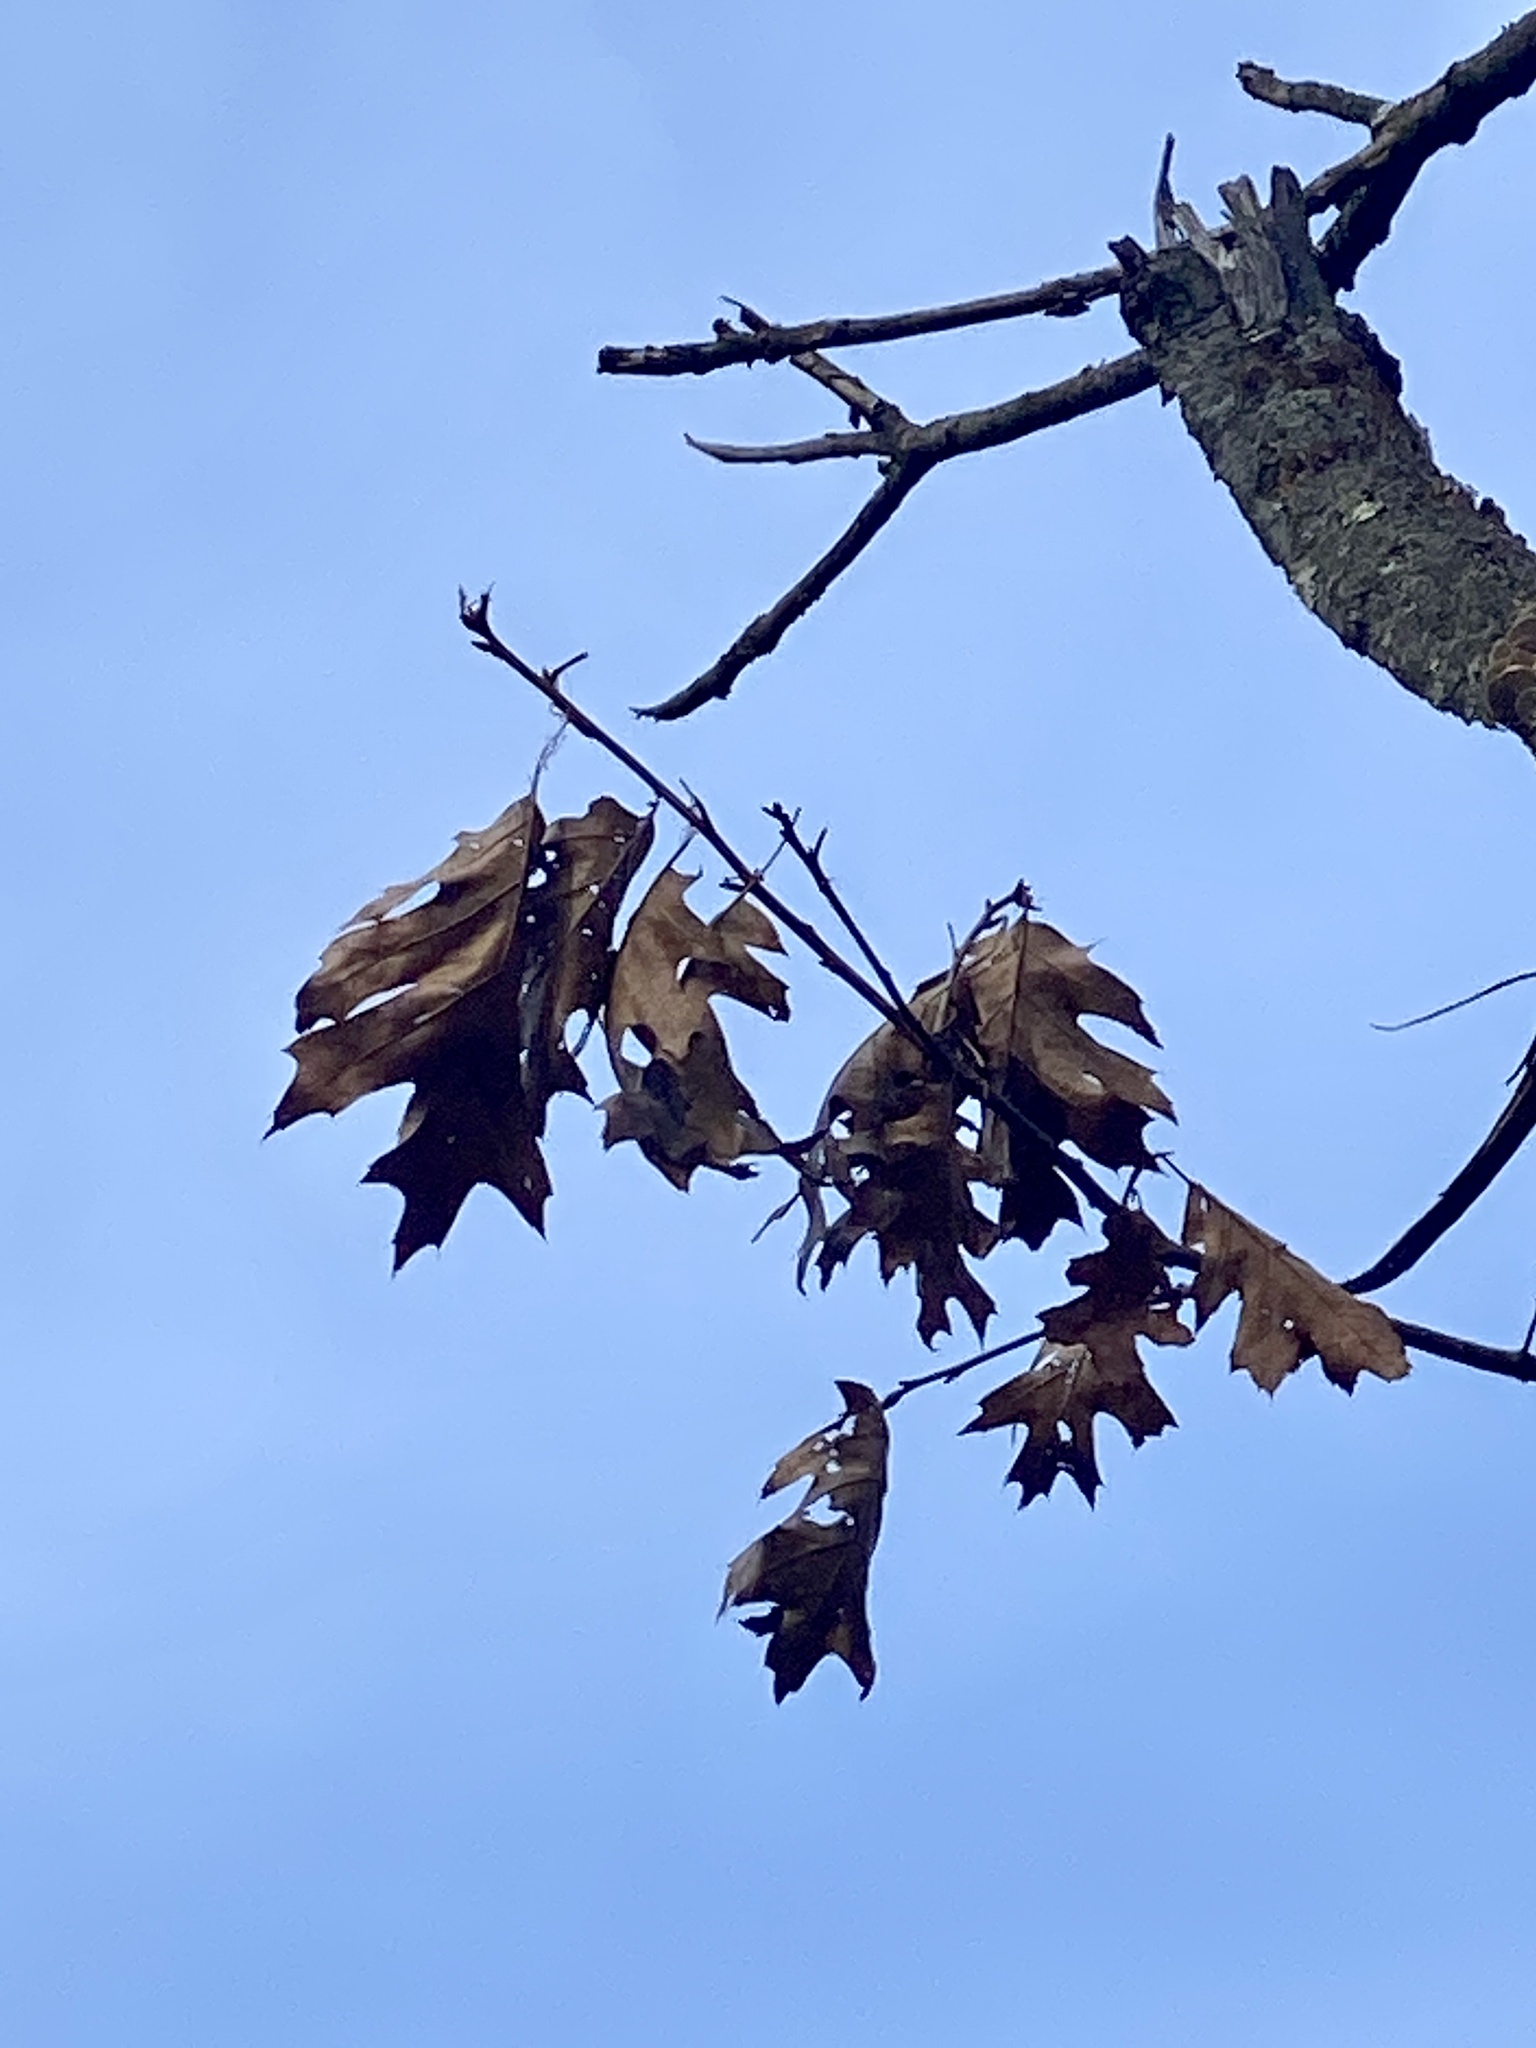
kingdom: Plantae
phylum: Tracheophyta
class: Magnoliopsida
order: Fagales
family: Fagaceae
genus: Quercus
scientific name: Quercus rubra
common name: Red oak
